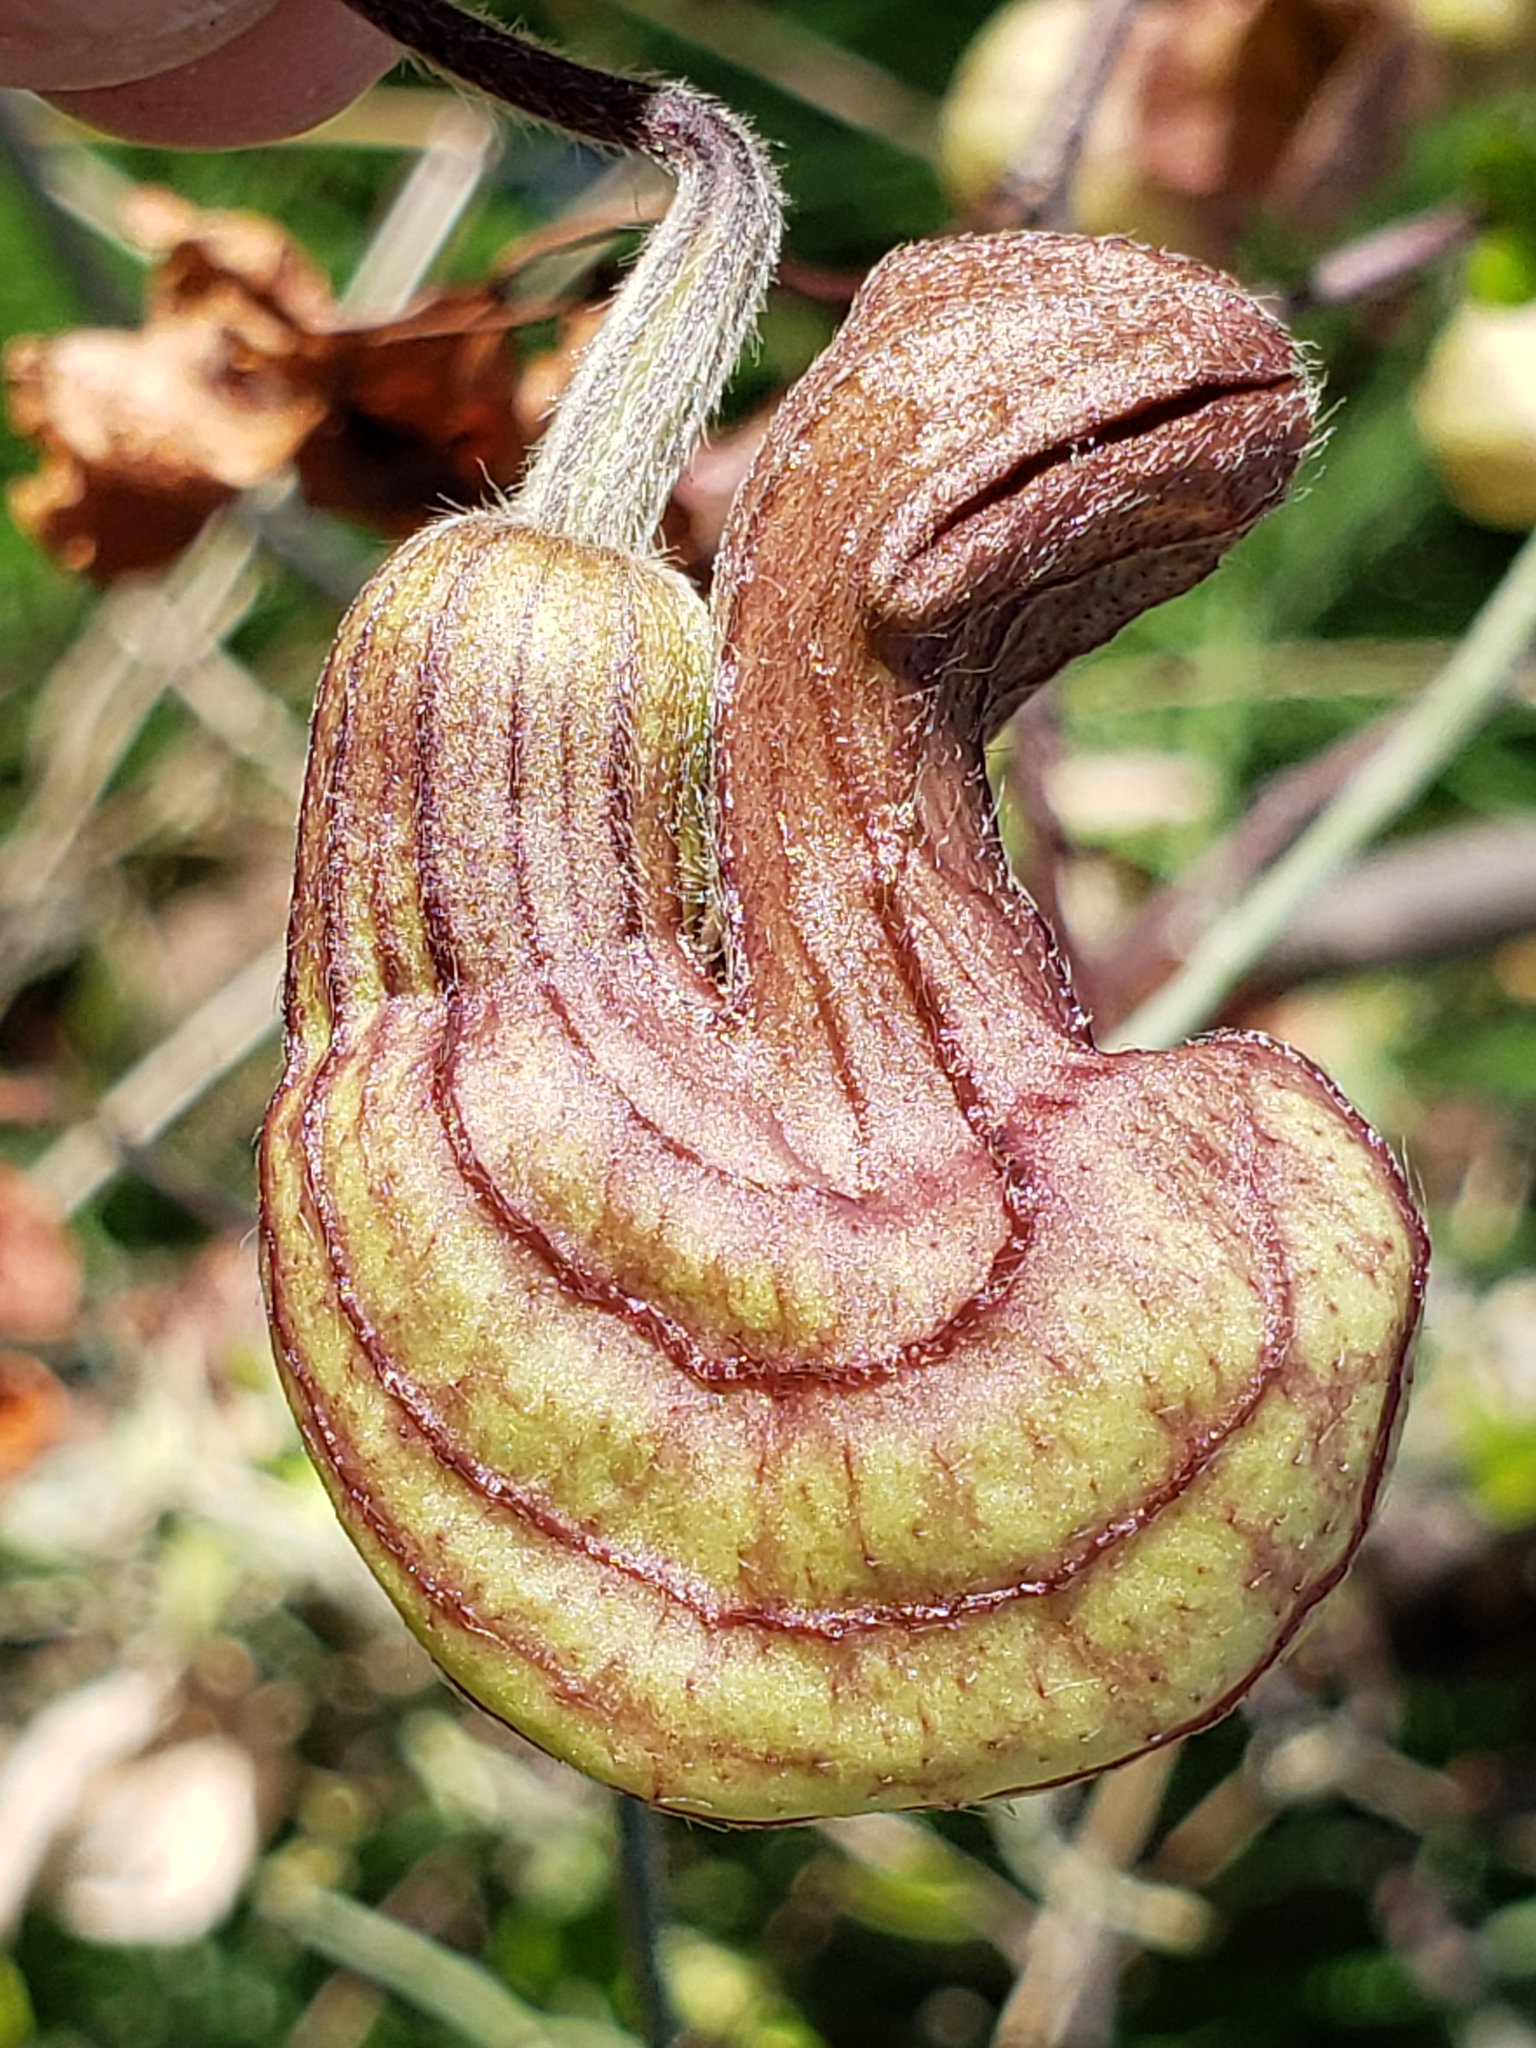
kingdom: Plantae
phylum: Tracheophyta
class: Magnoliopsida
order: Piperales
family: Aristolochiaceae
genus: Isotrema
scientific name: Isotrema californicum
